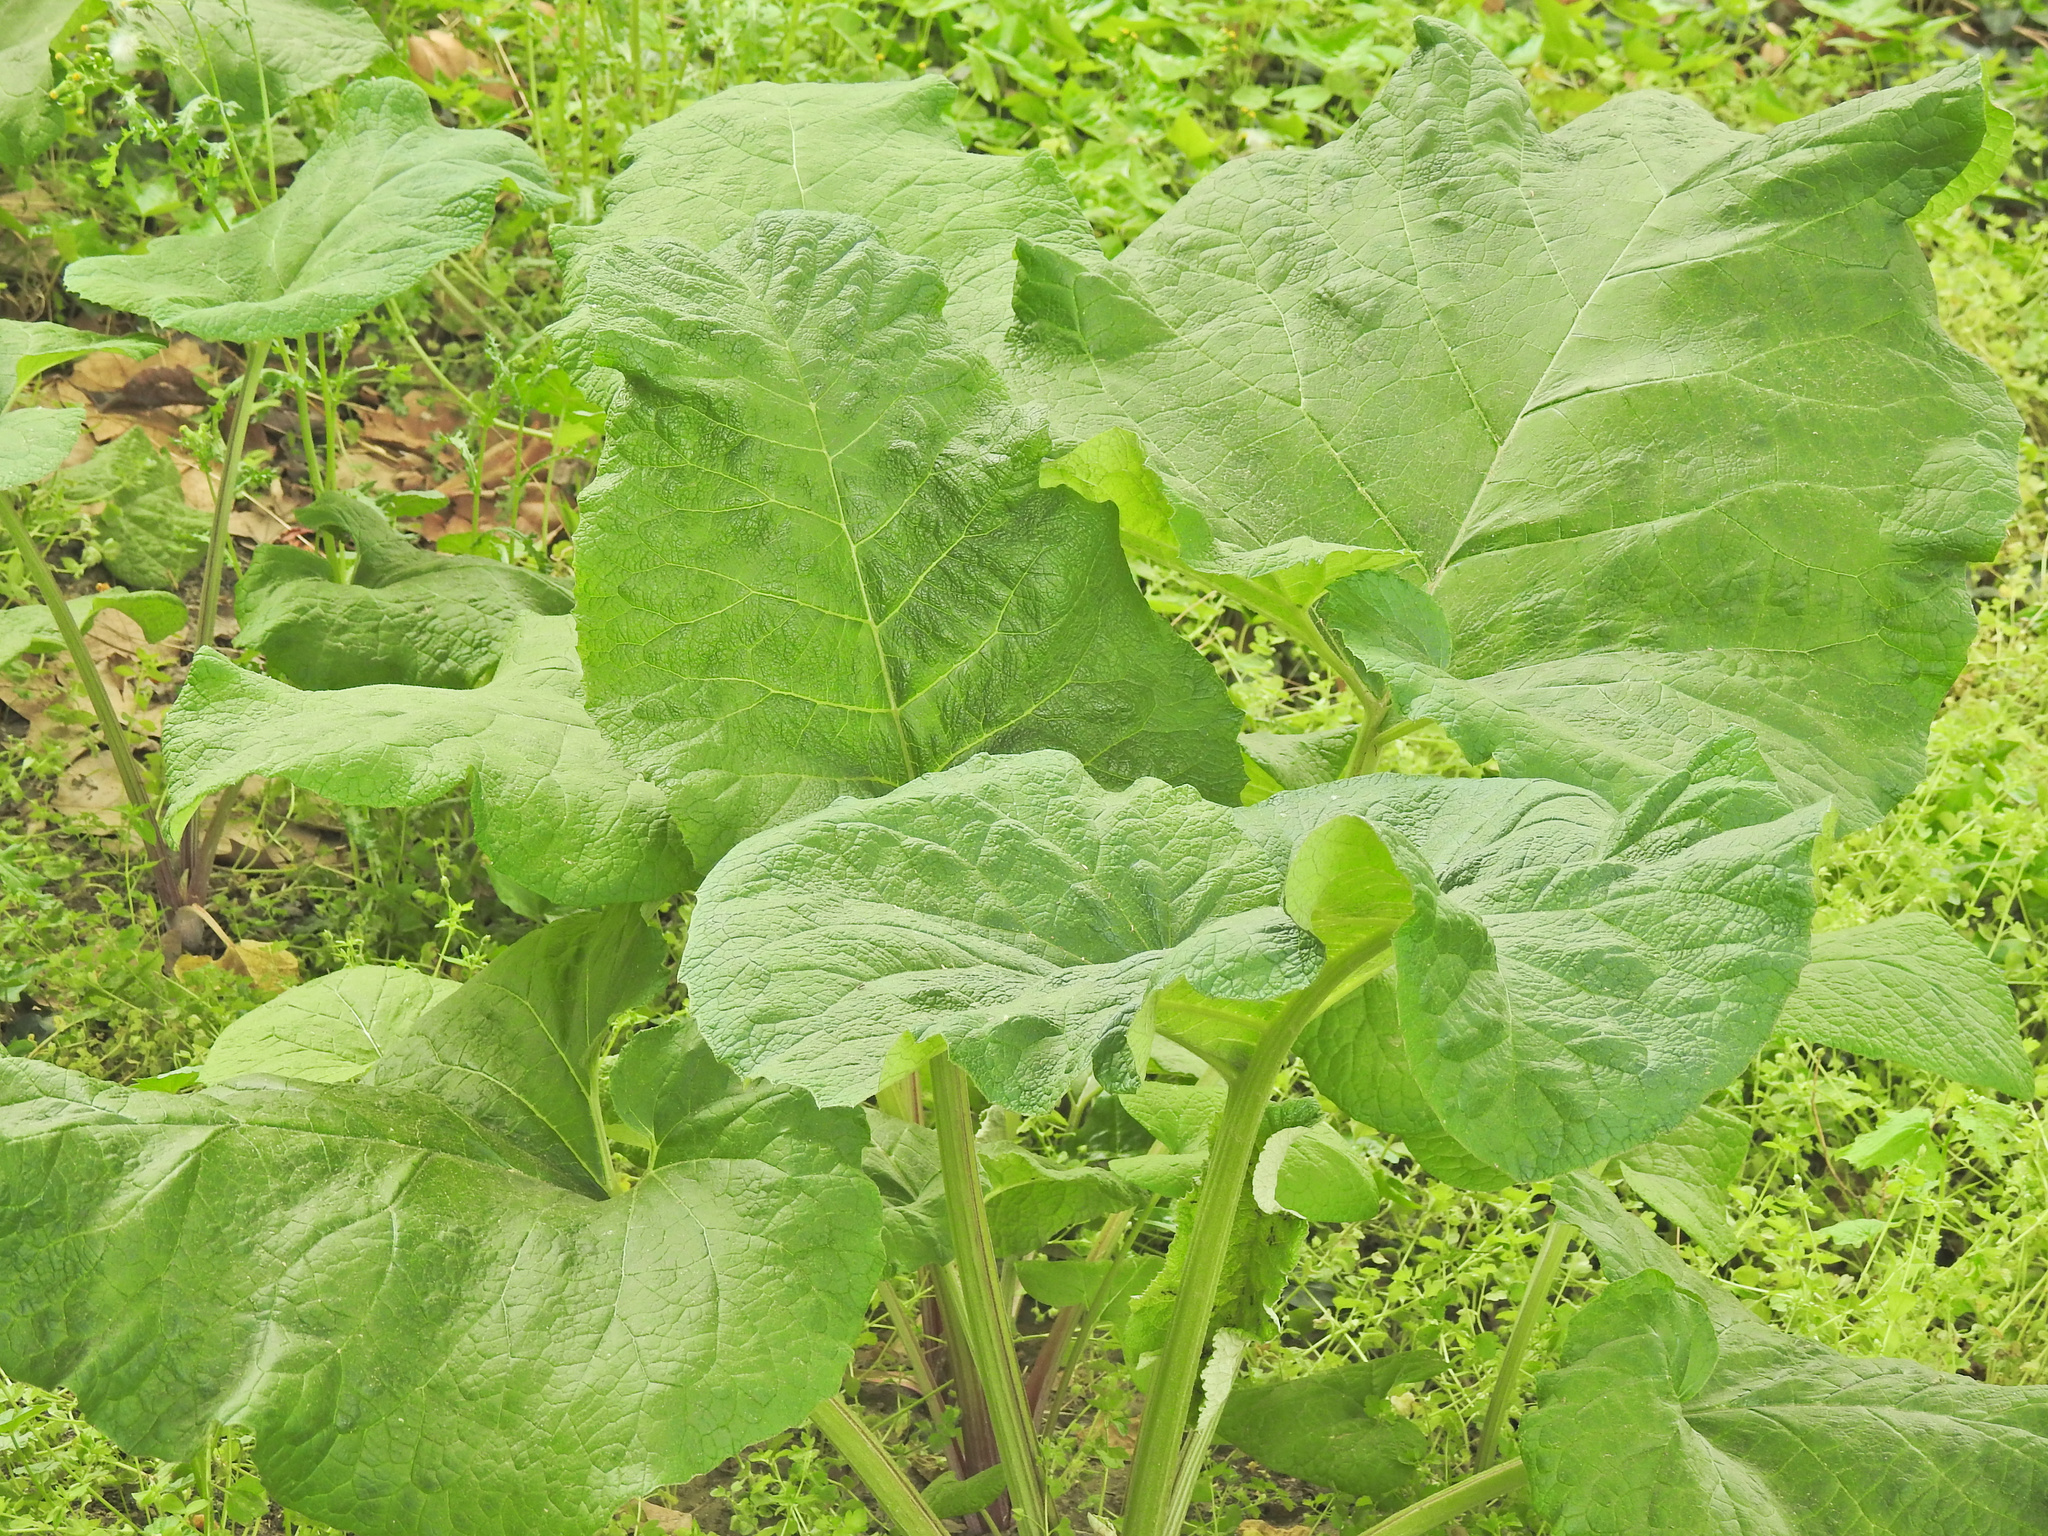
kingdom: Plantae
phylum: Tracheophyta
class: Magnoliopsida
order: Asterales
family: Asteraceae
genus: Arctium
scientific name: Arctium
